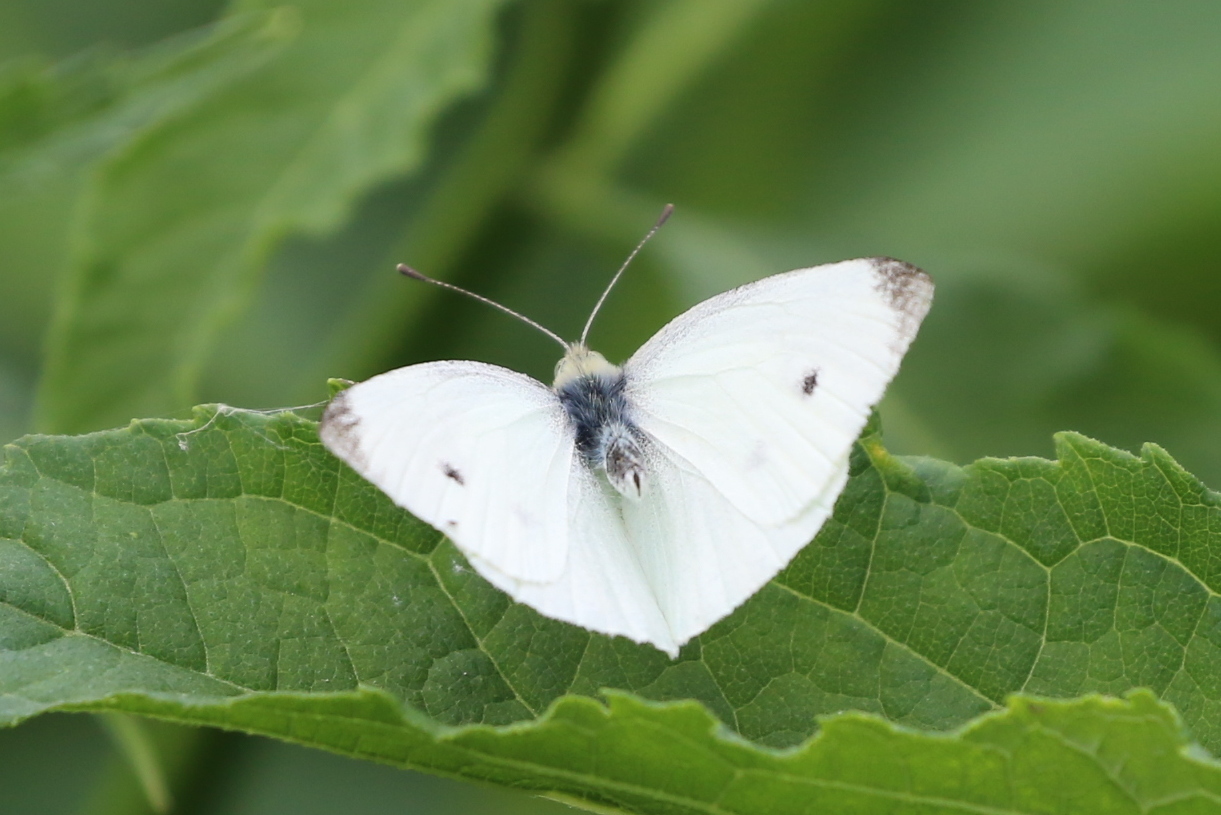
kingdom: Animalia
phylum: Arthropoda
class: Insecta
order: Lepidoptera
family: Pieridae
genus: Pieris
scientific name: Pieris rapae
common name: Small white
